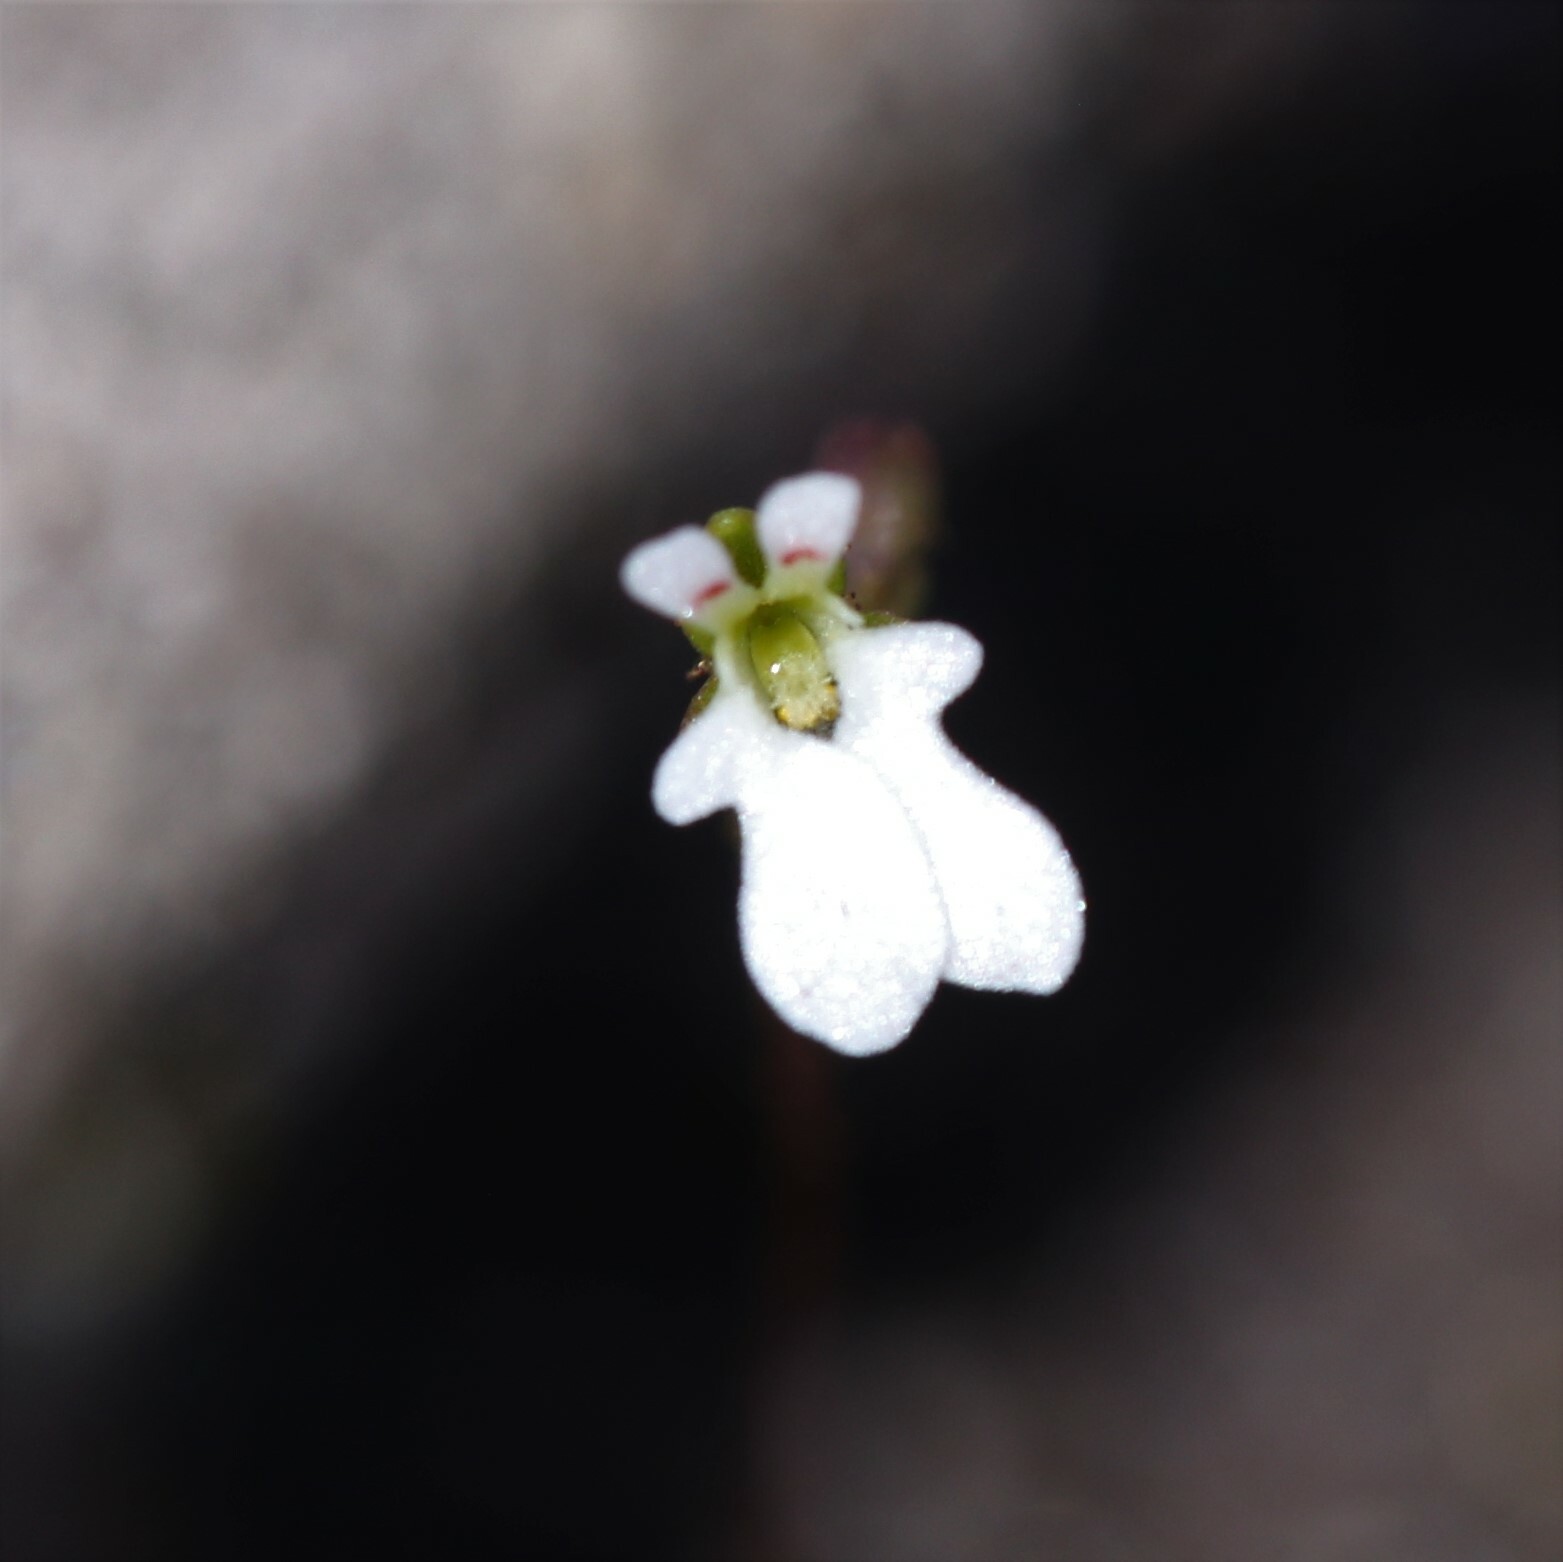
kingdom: Plantae
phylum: Tracheophyta
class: Magnoliopsida
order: Asterales
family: Stylidiaceae
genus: Stylidium
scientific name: Stylidium perpusillum
